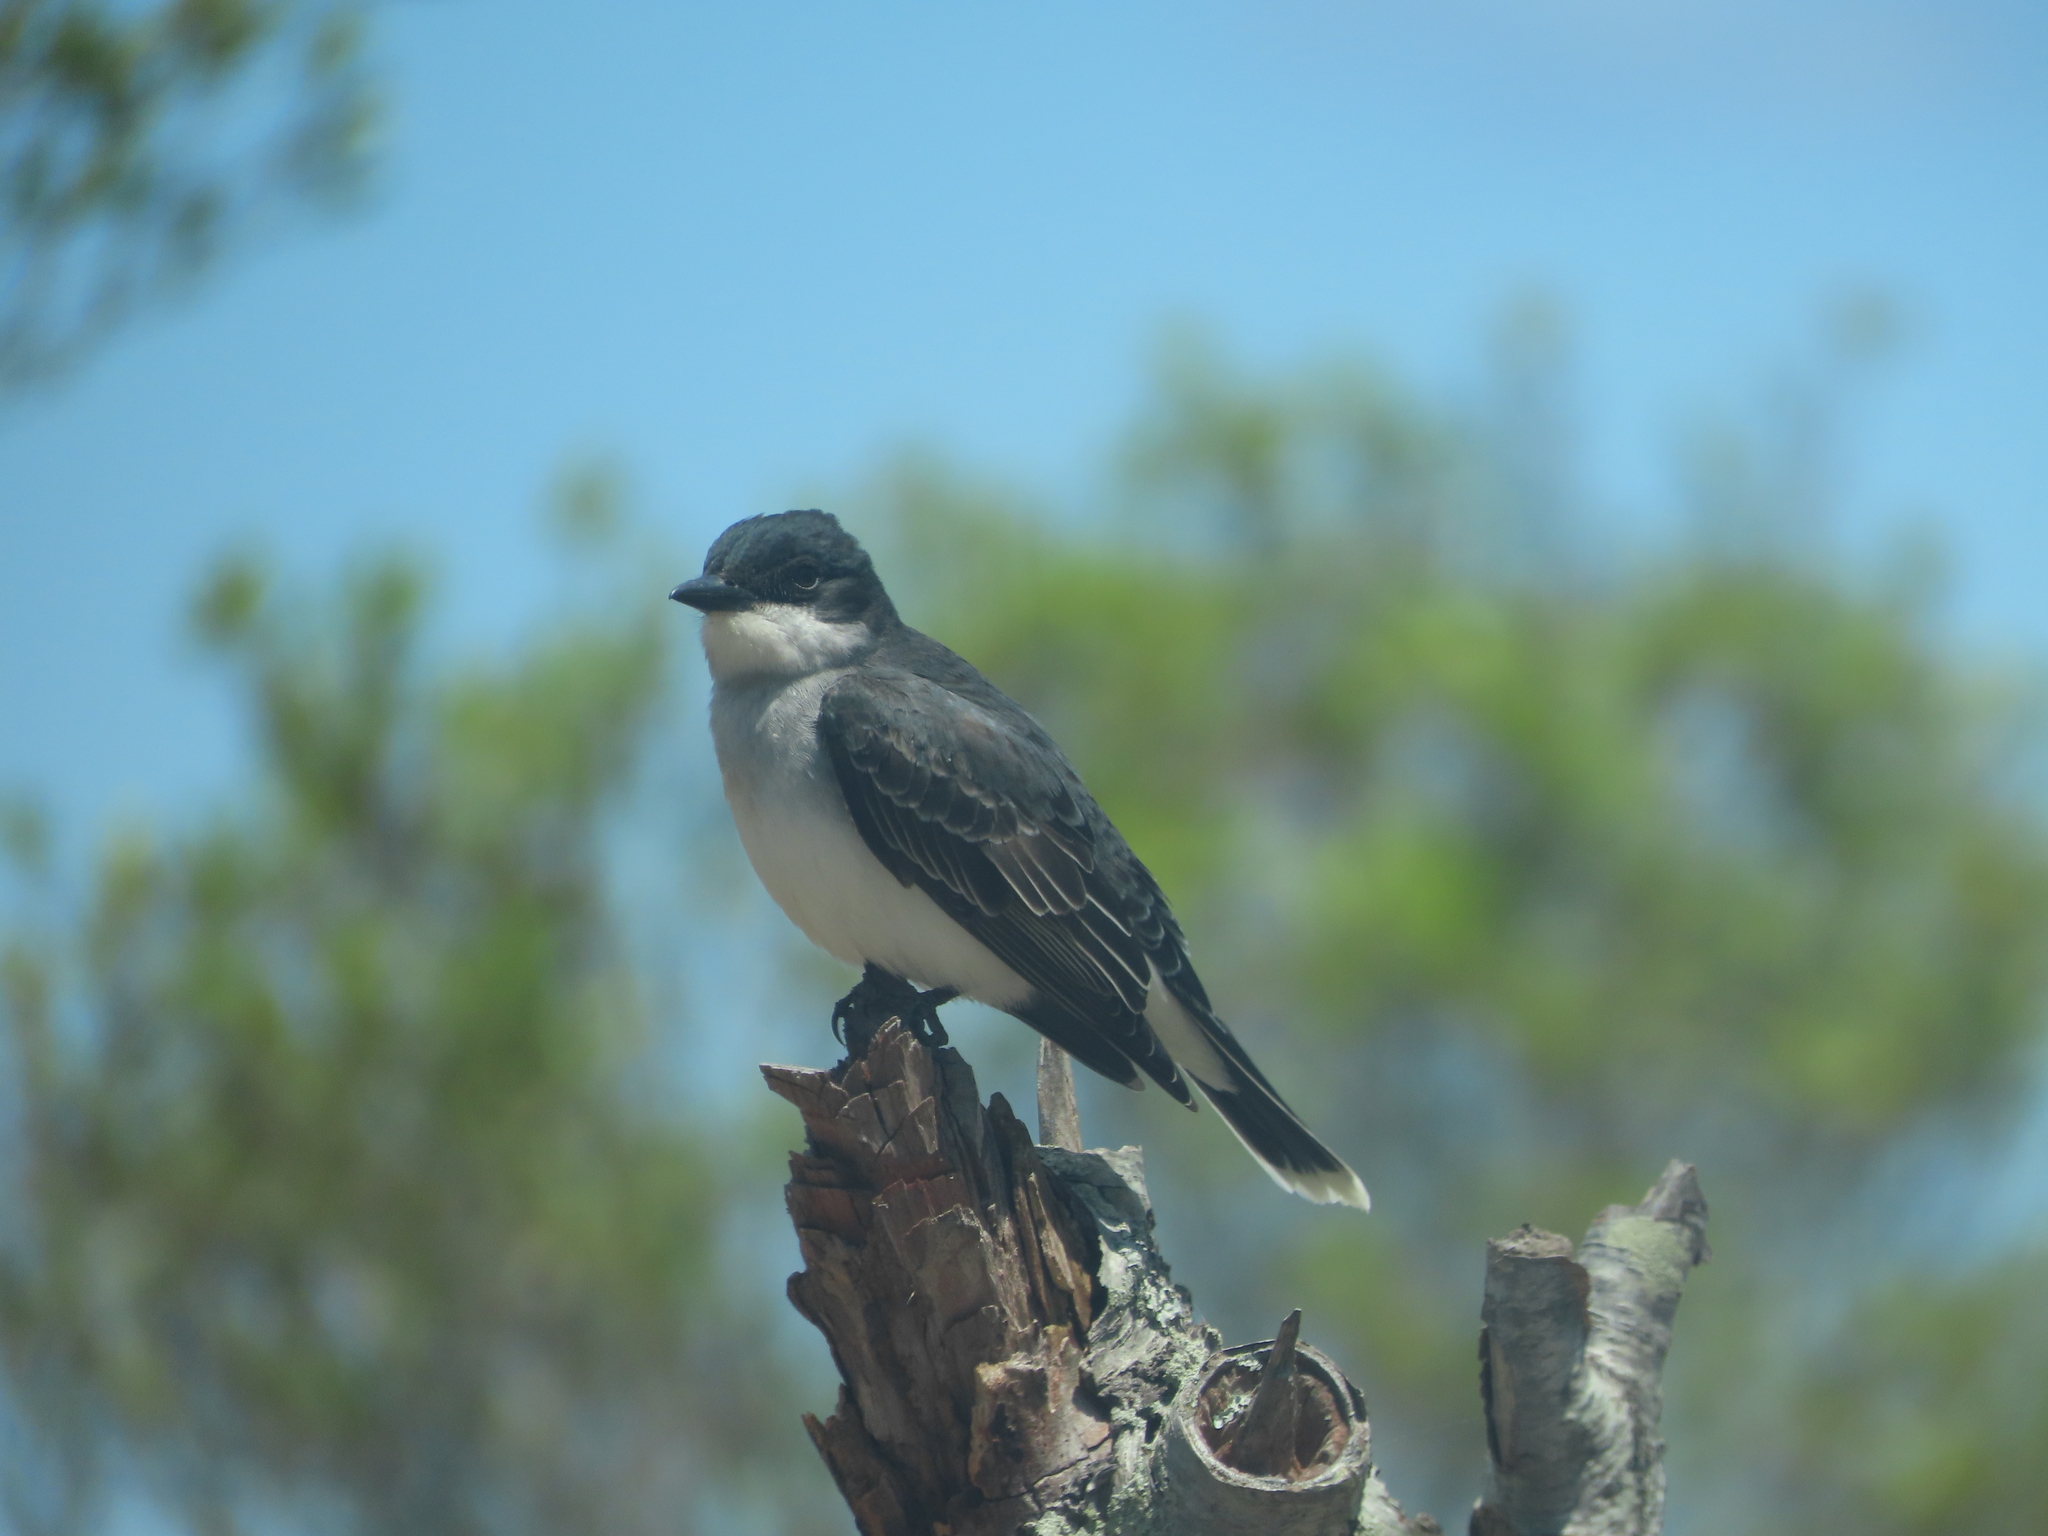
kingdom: Animalia
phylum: Chordata
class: Aves
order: Passeriformes
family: Tyrannidae
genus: Tyrannus
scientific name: Tyrannus tyrannus
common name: Eastern kingbird
